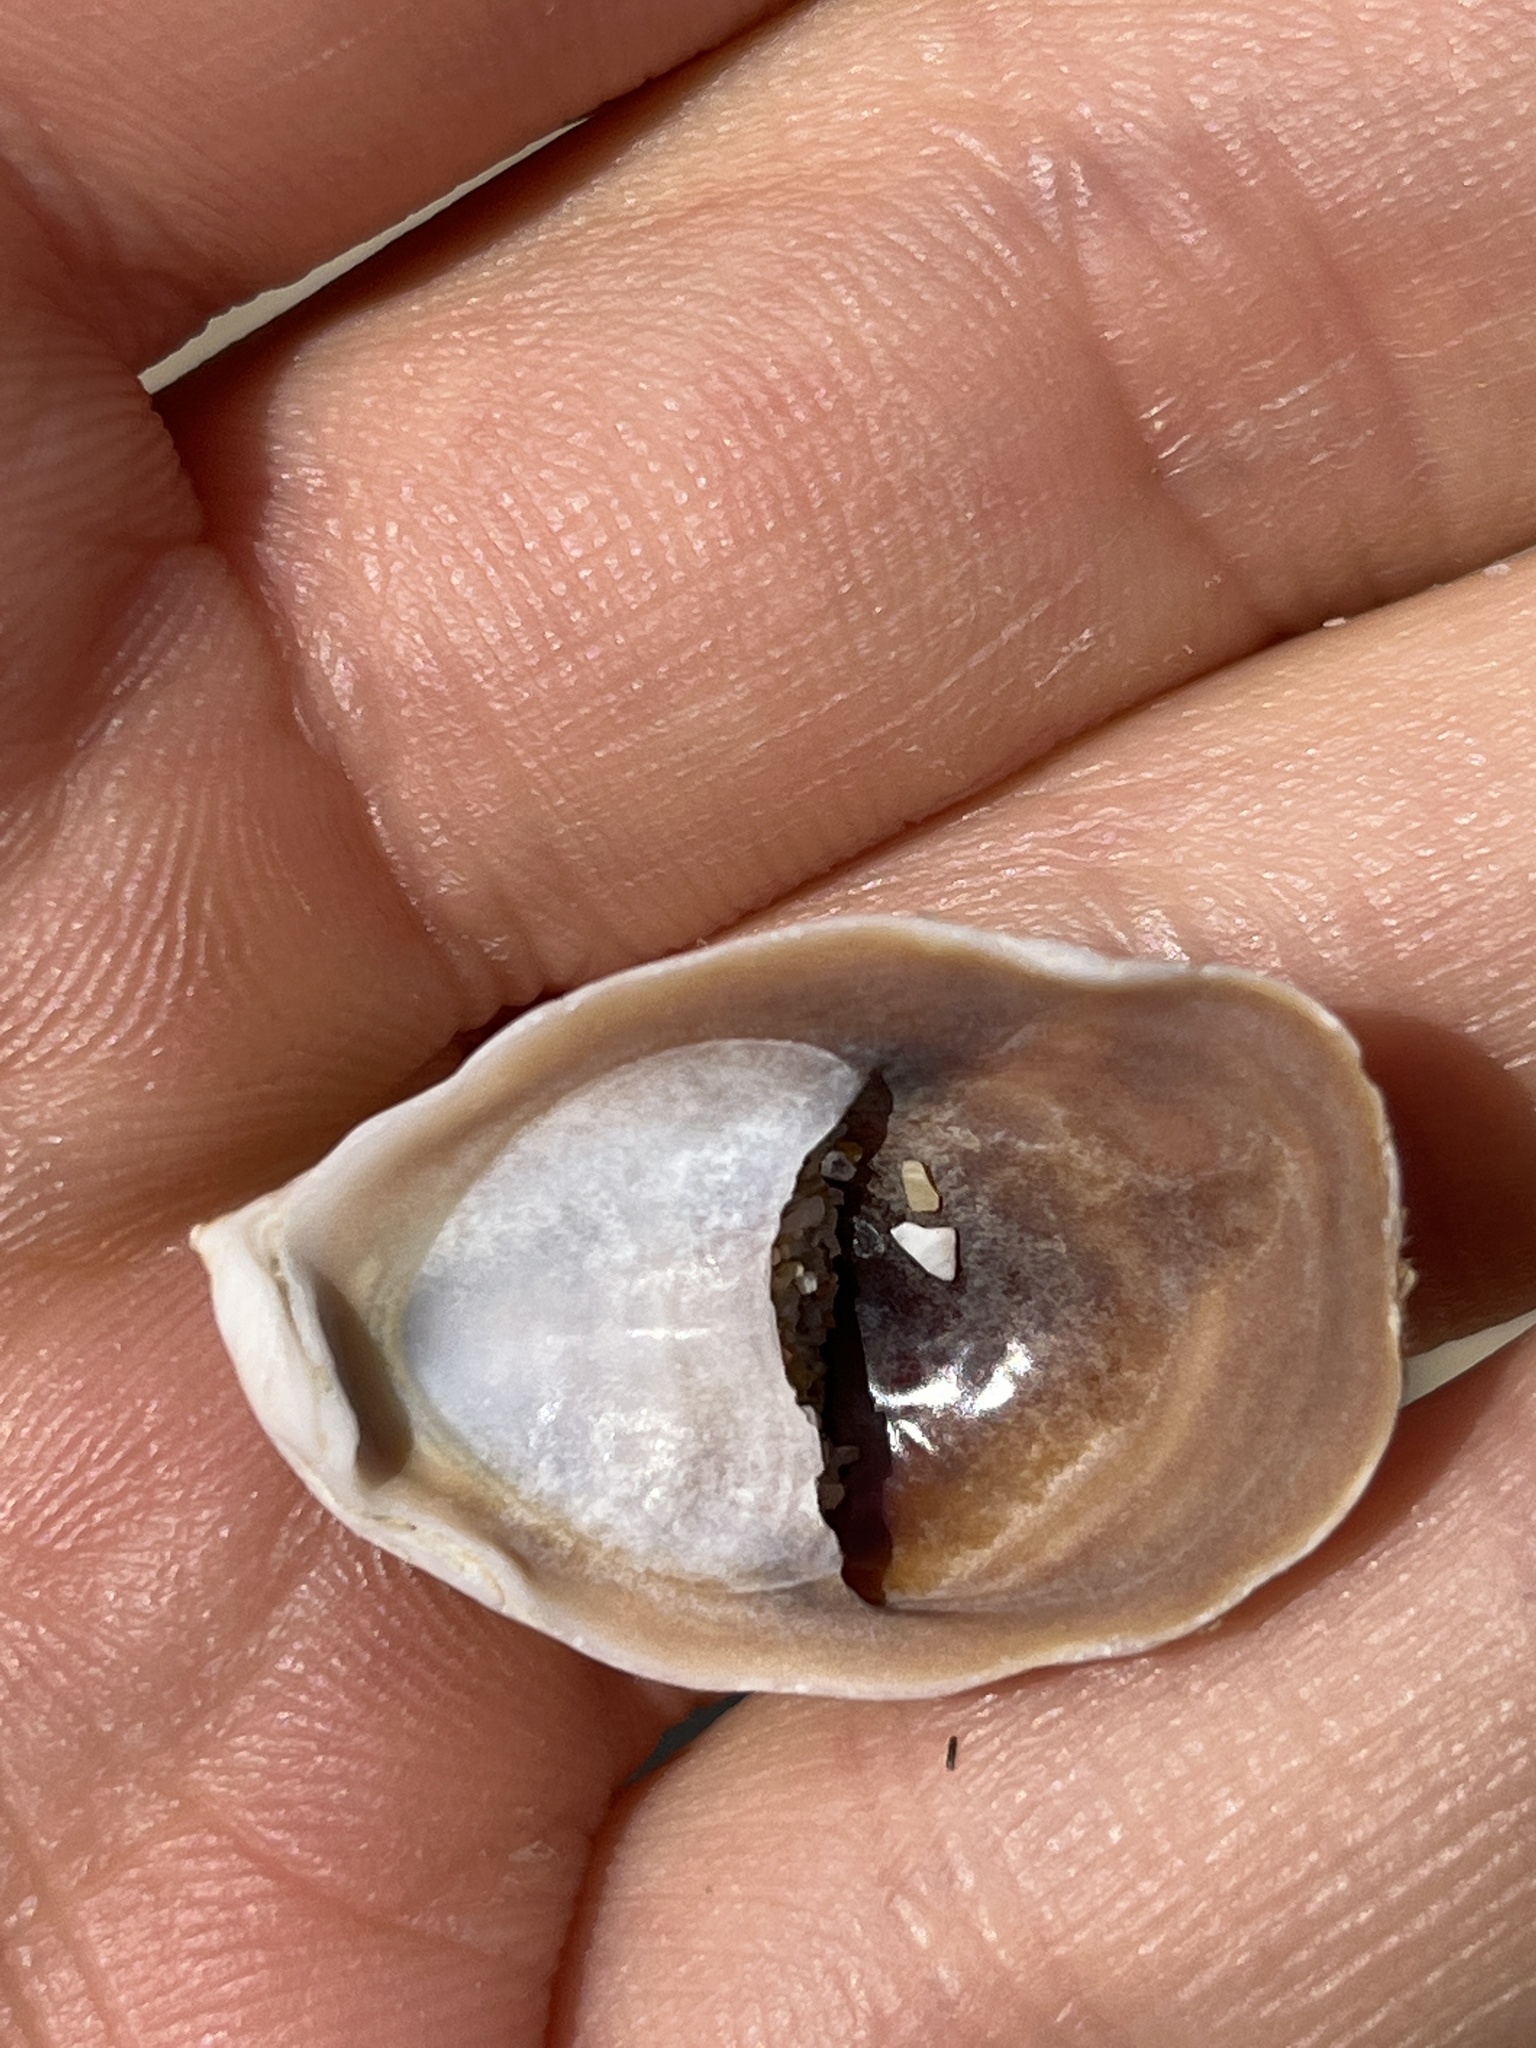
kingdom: Animalia
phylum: Mollusca
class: Gastropoda
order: Littorinimorpha
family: Calyptraeidae
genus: Crepidula
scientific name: Crepidula onyx
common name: Onyx slippersnail
